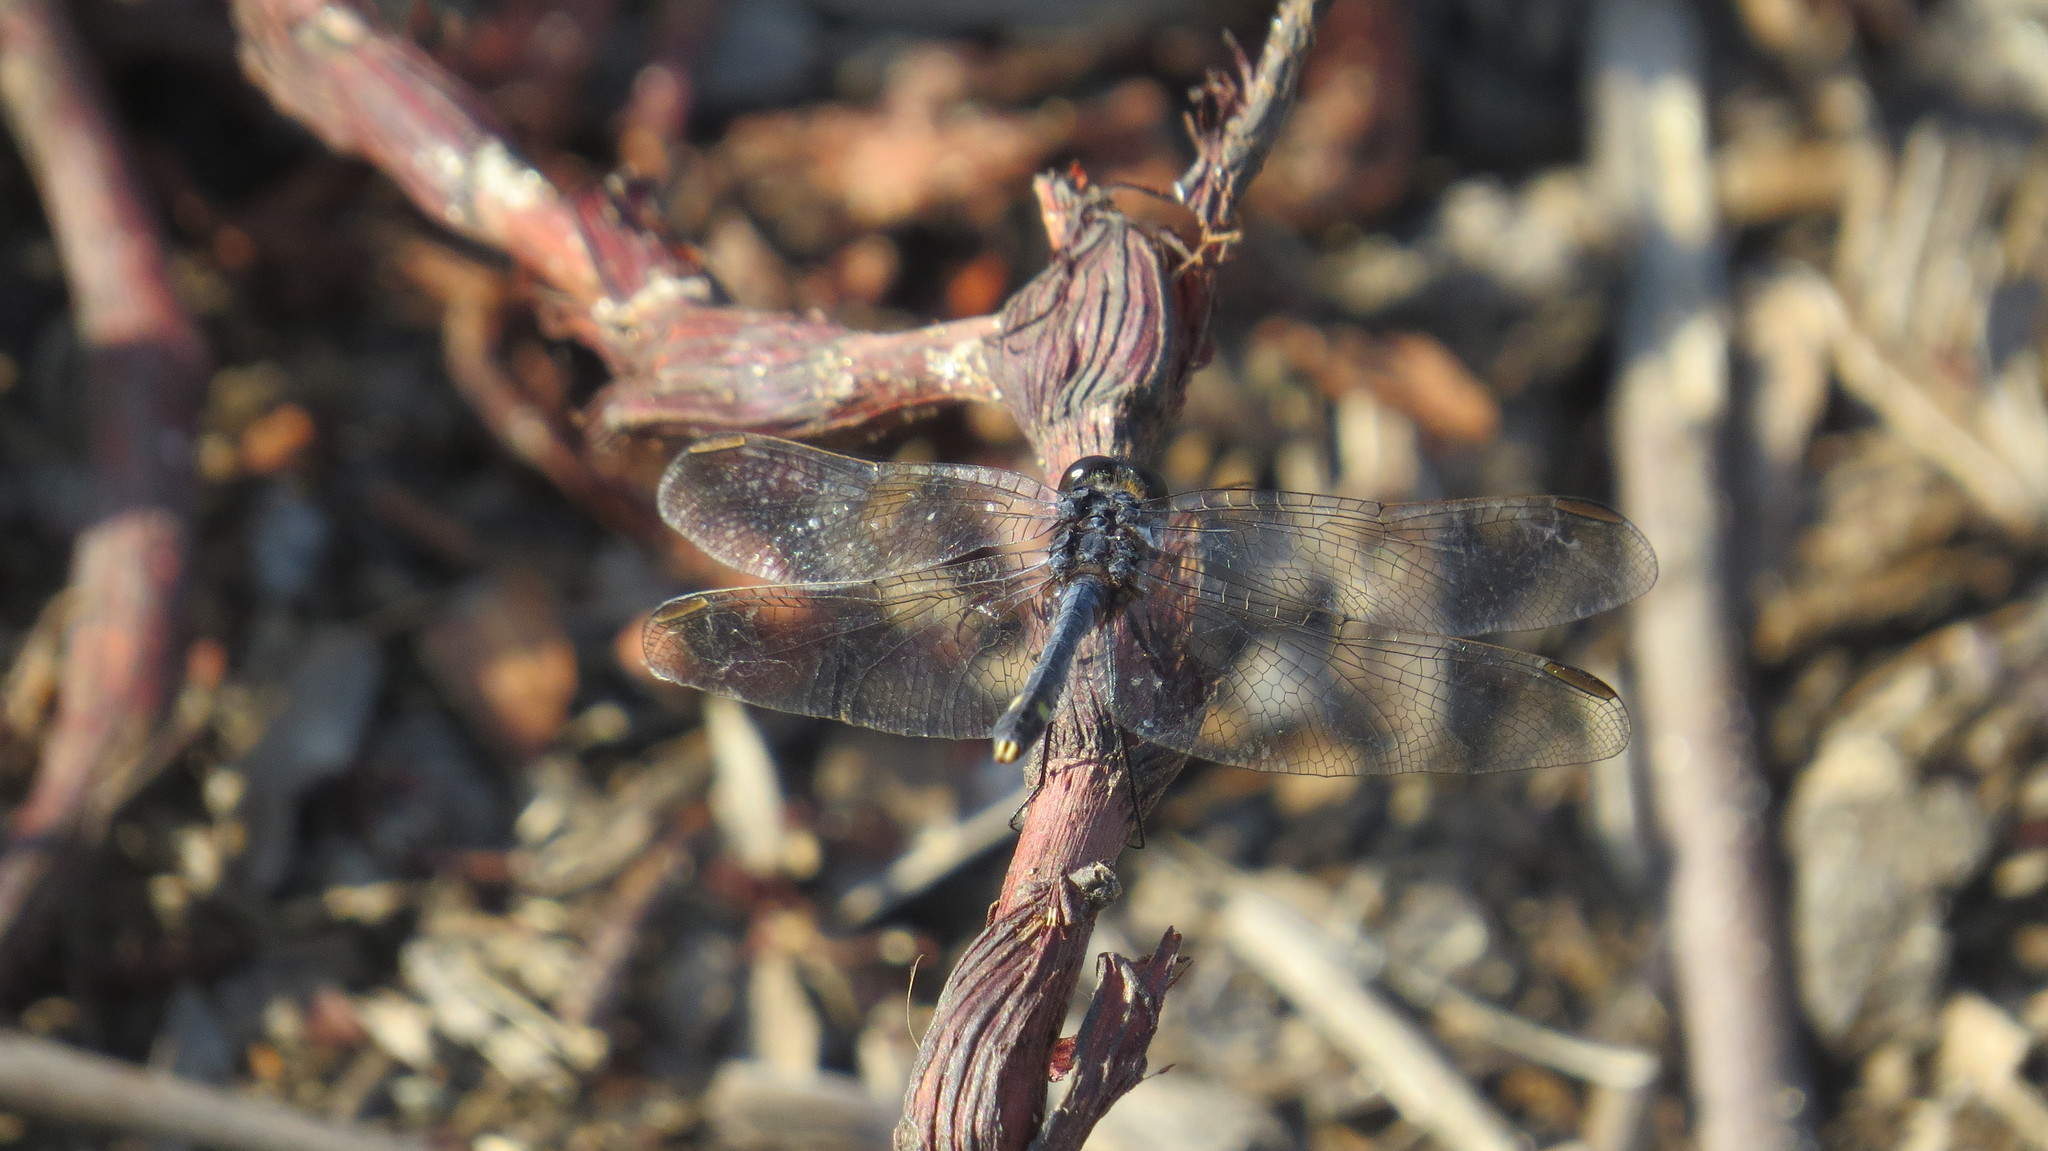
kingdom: Animalia
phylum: Arthropoda
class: Insecta
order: Odonata
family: Libellulidae
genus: Erythrodiplax
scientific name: Erythrodiplax nigricans
